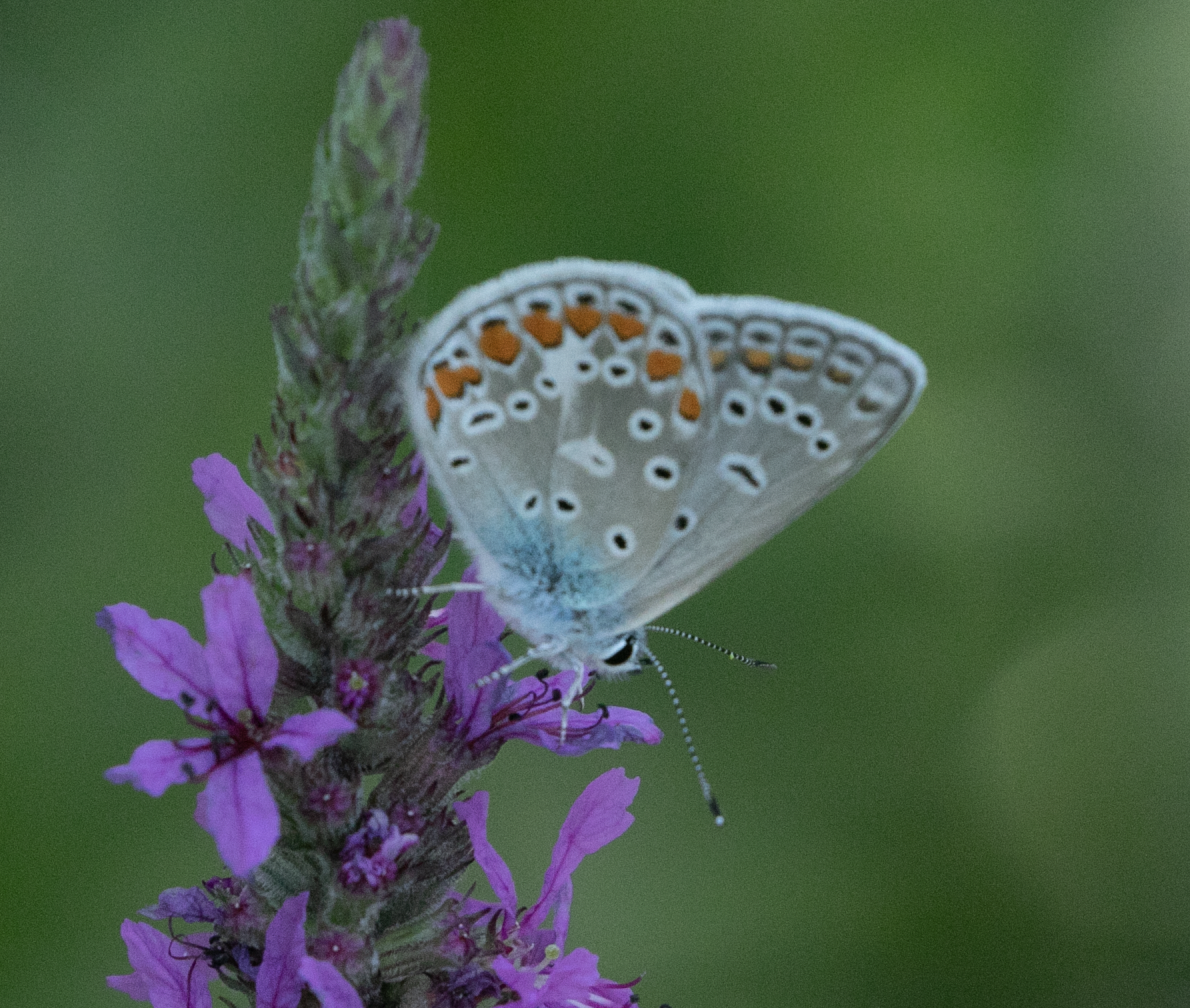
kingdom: Animalia
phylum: Arthropoda
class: Insecta
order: Lepidoptera
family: Lycaenidae
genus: Polyommatus
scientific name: Polyommatus icarus
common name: Common blue
